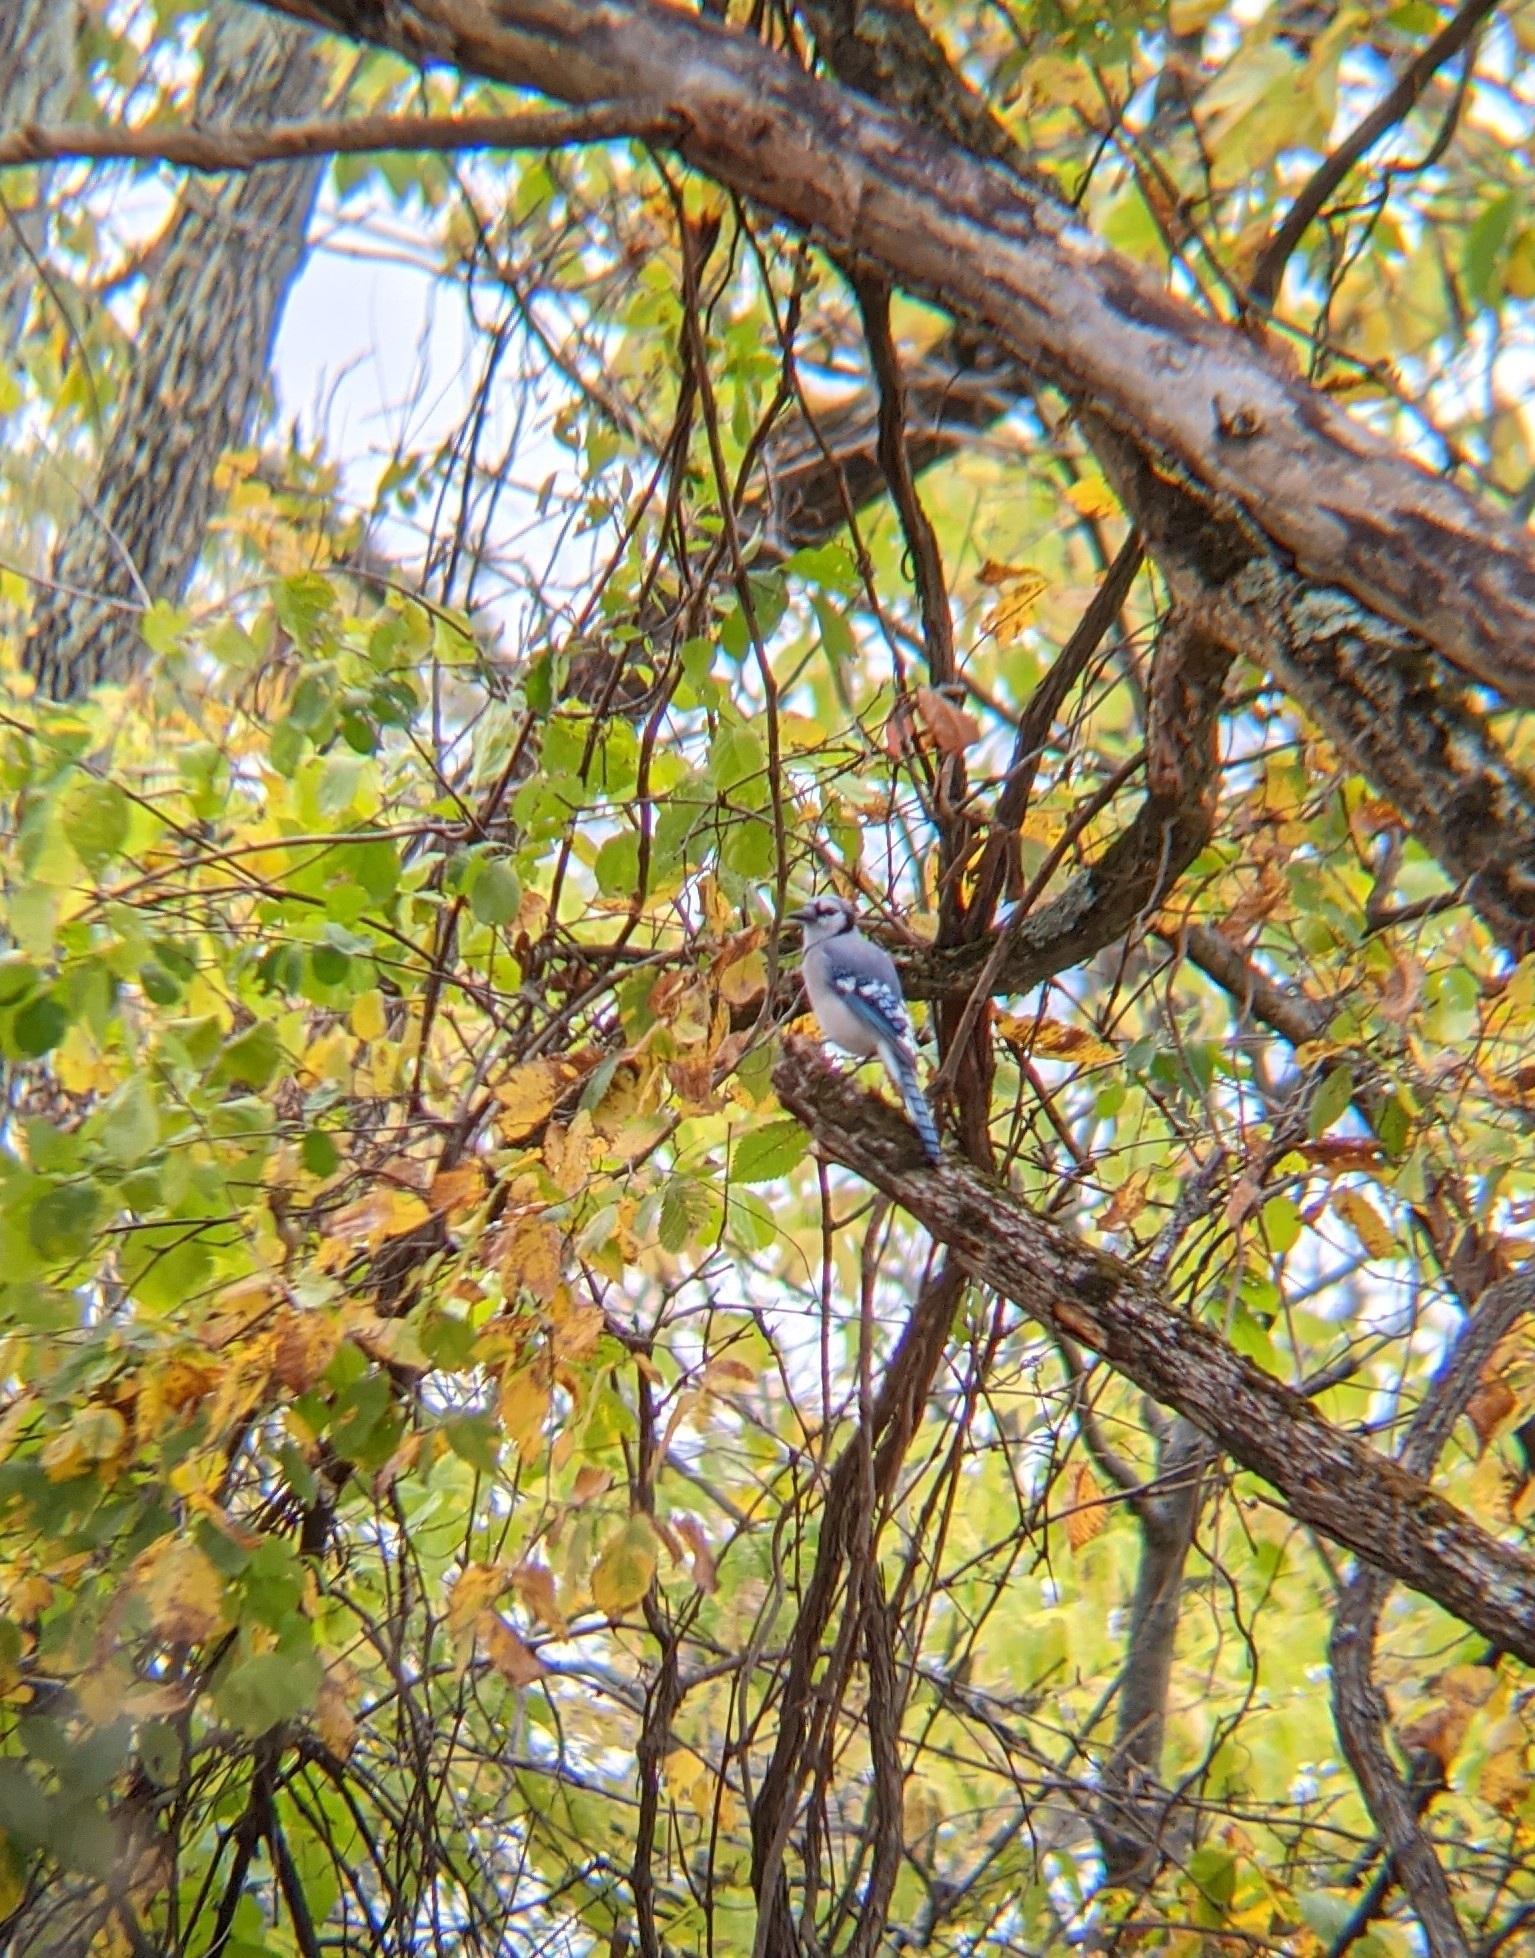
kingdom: Animalia
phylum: Chordata
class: Aves
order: Passeriformes
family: Corvidae
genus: Cyanocitta
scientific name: Cyanocitta cristata
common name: Blue jay
